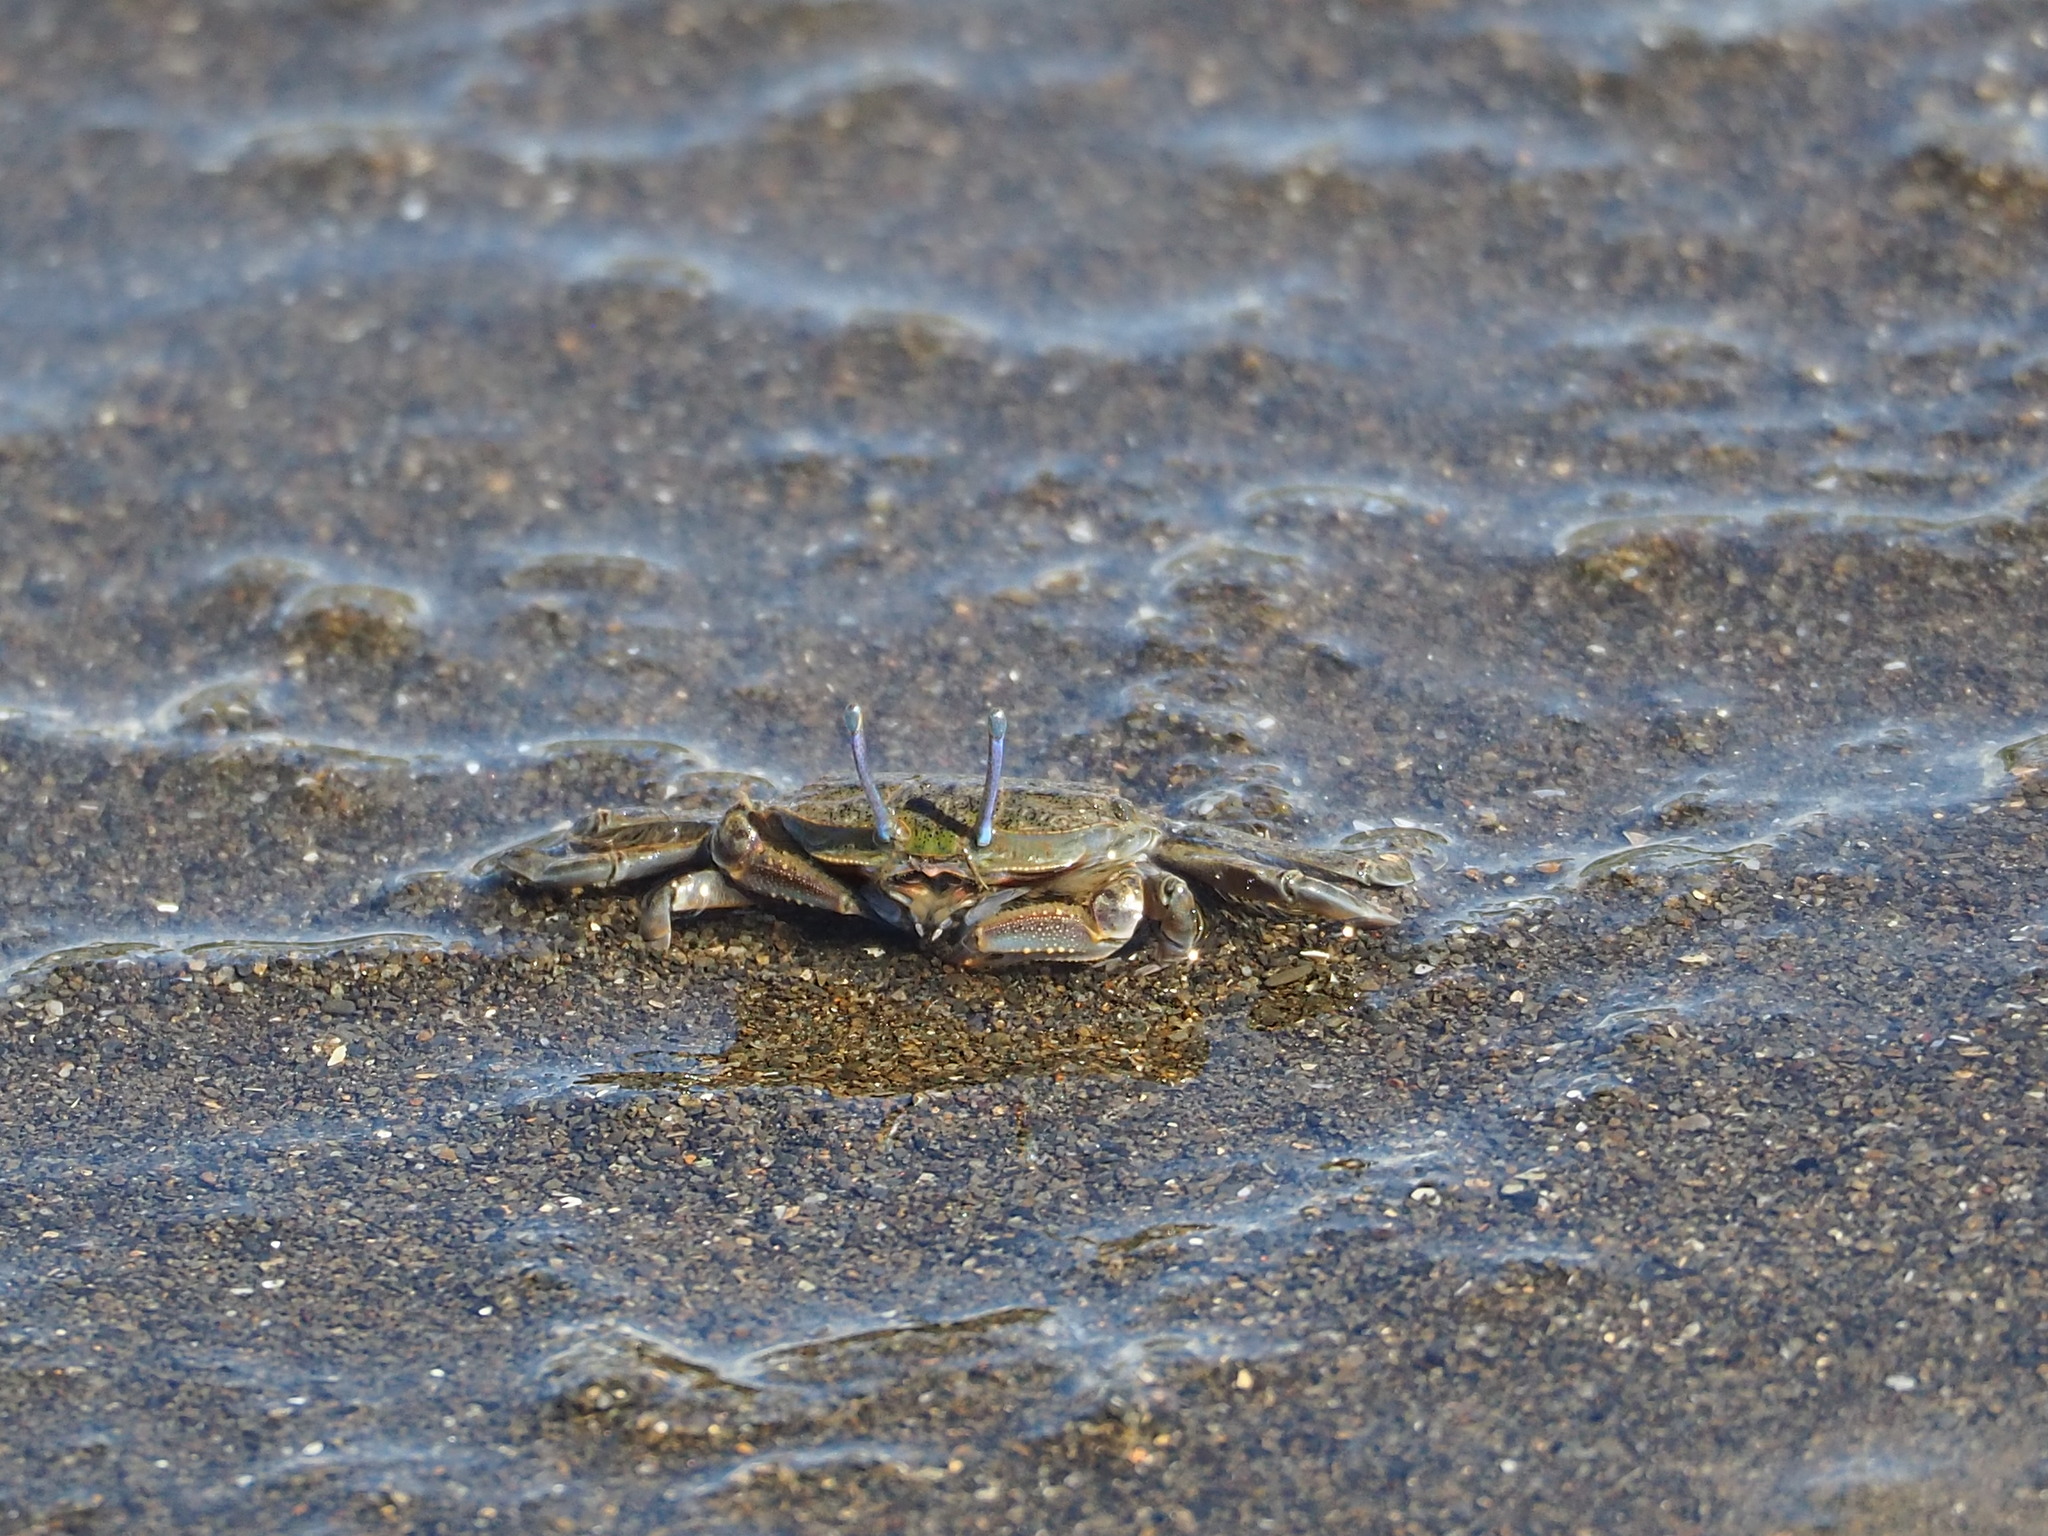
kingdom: Animalia
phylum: Arthropoda
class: Malacostraca
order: Decapoda
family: Macrophthalmidae
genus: Macrophthalmus
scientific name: Macrophthalmus abbreviatus
